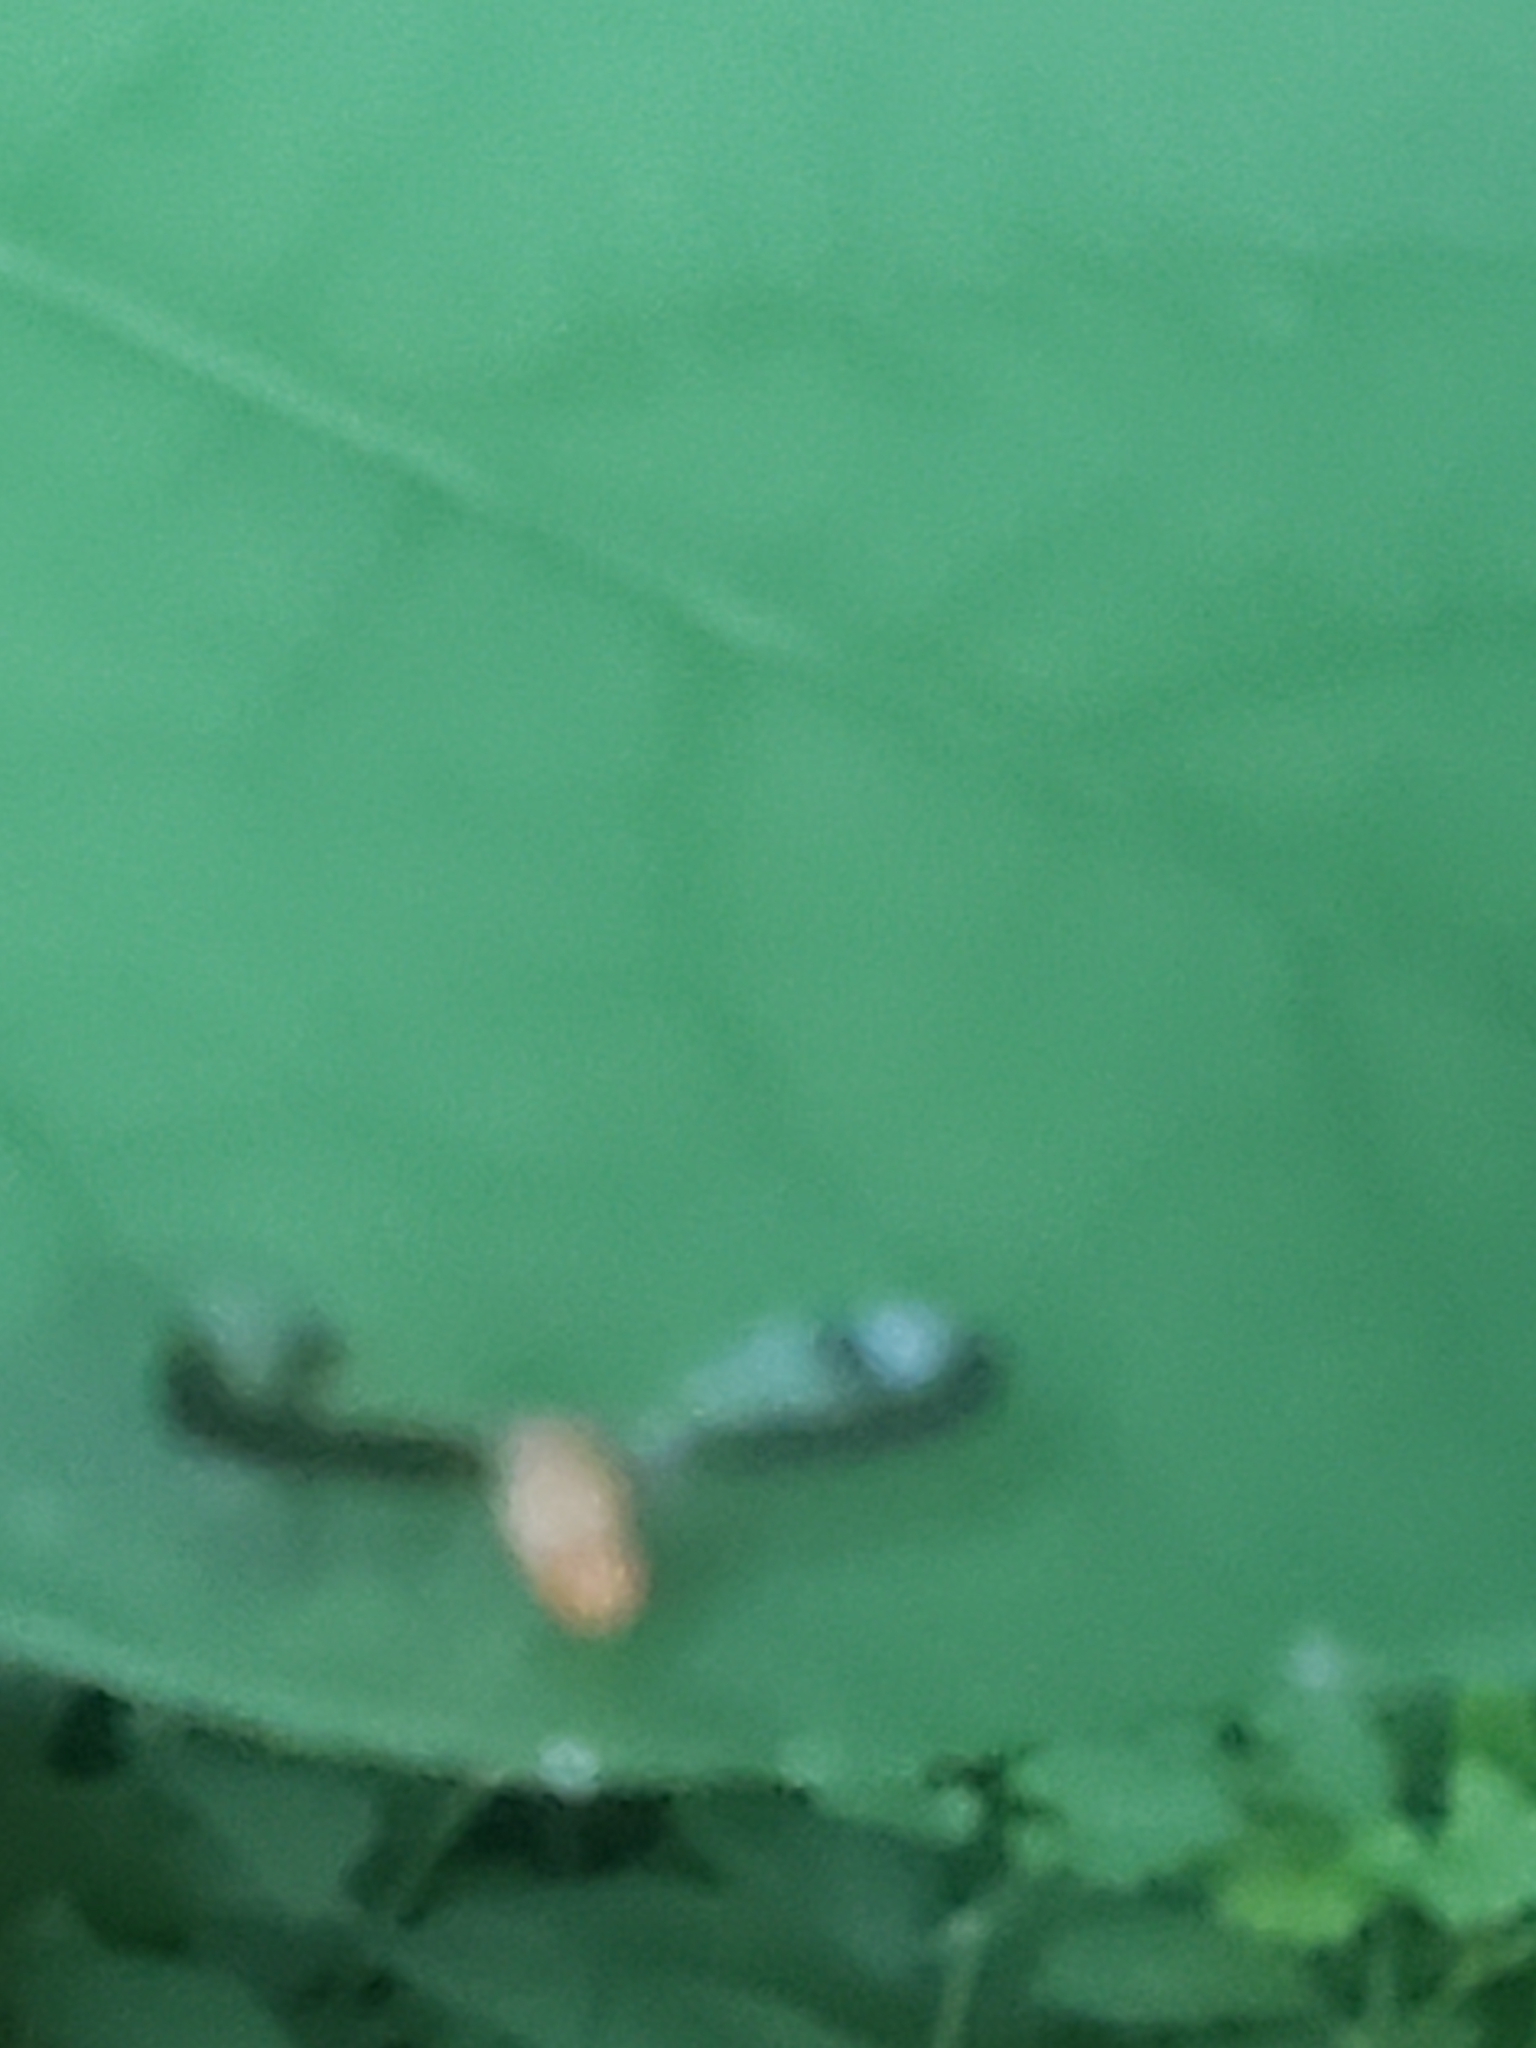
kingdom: Animalia
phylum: Arthropoda
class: Insecta
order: Diptera
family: Pallopteridae
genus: Toxonevra
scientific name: Toxonevra superba
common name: Antlered flutter fly
